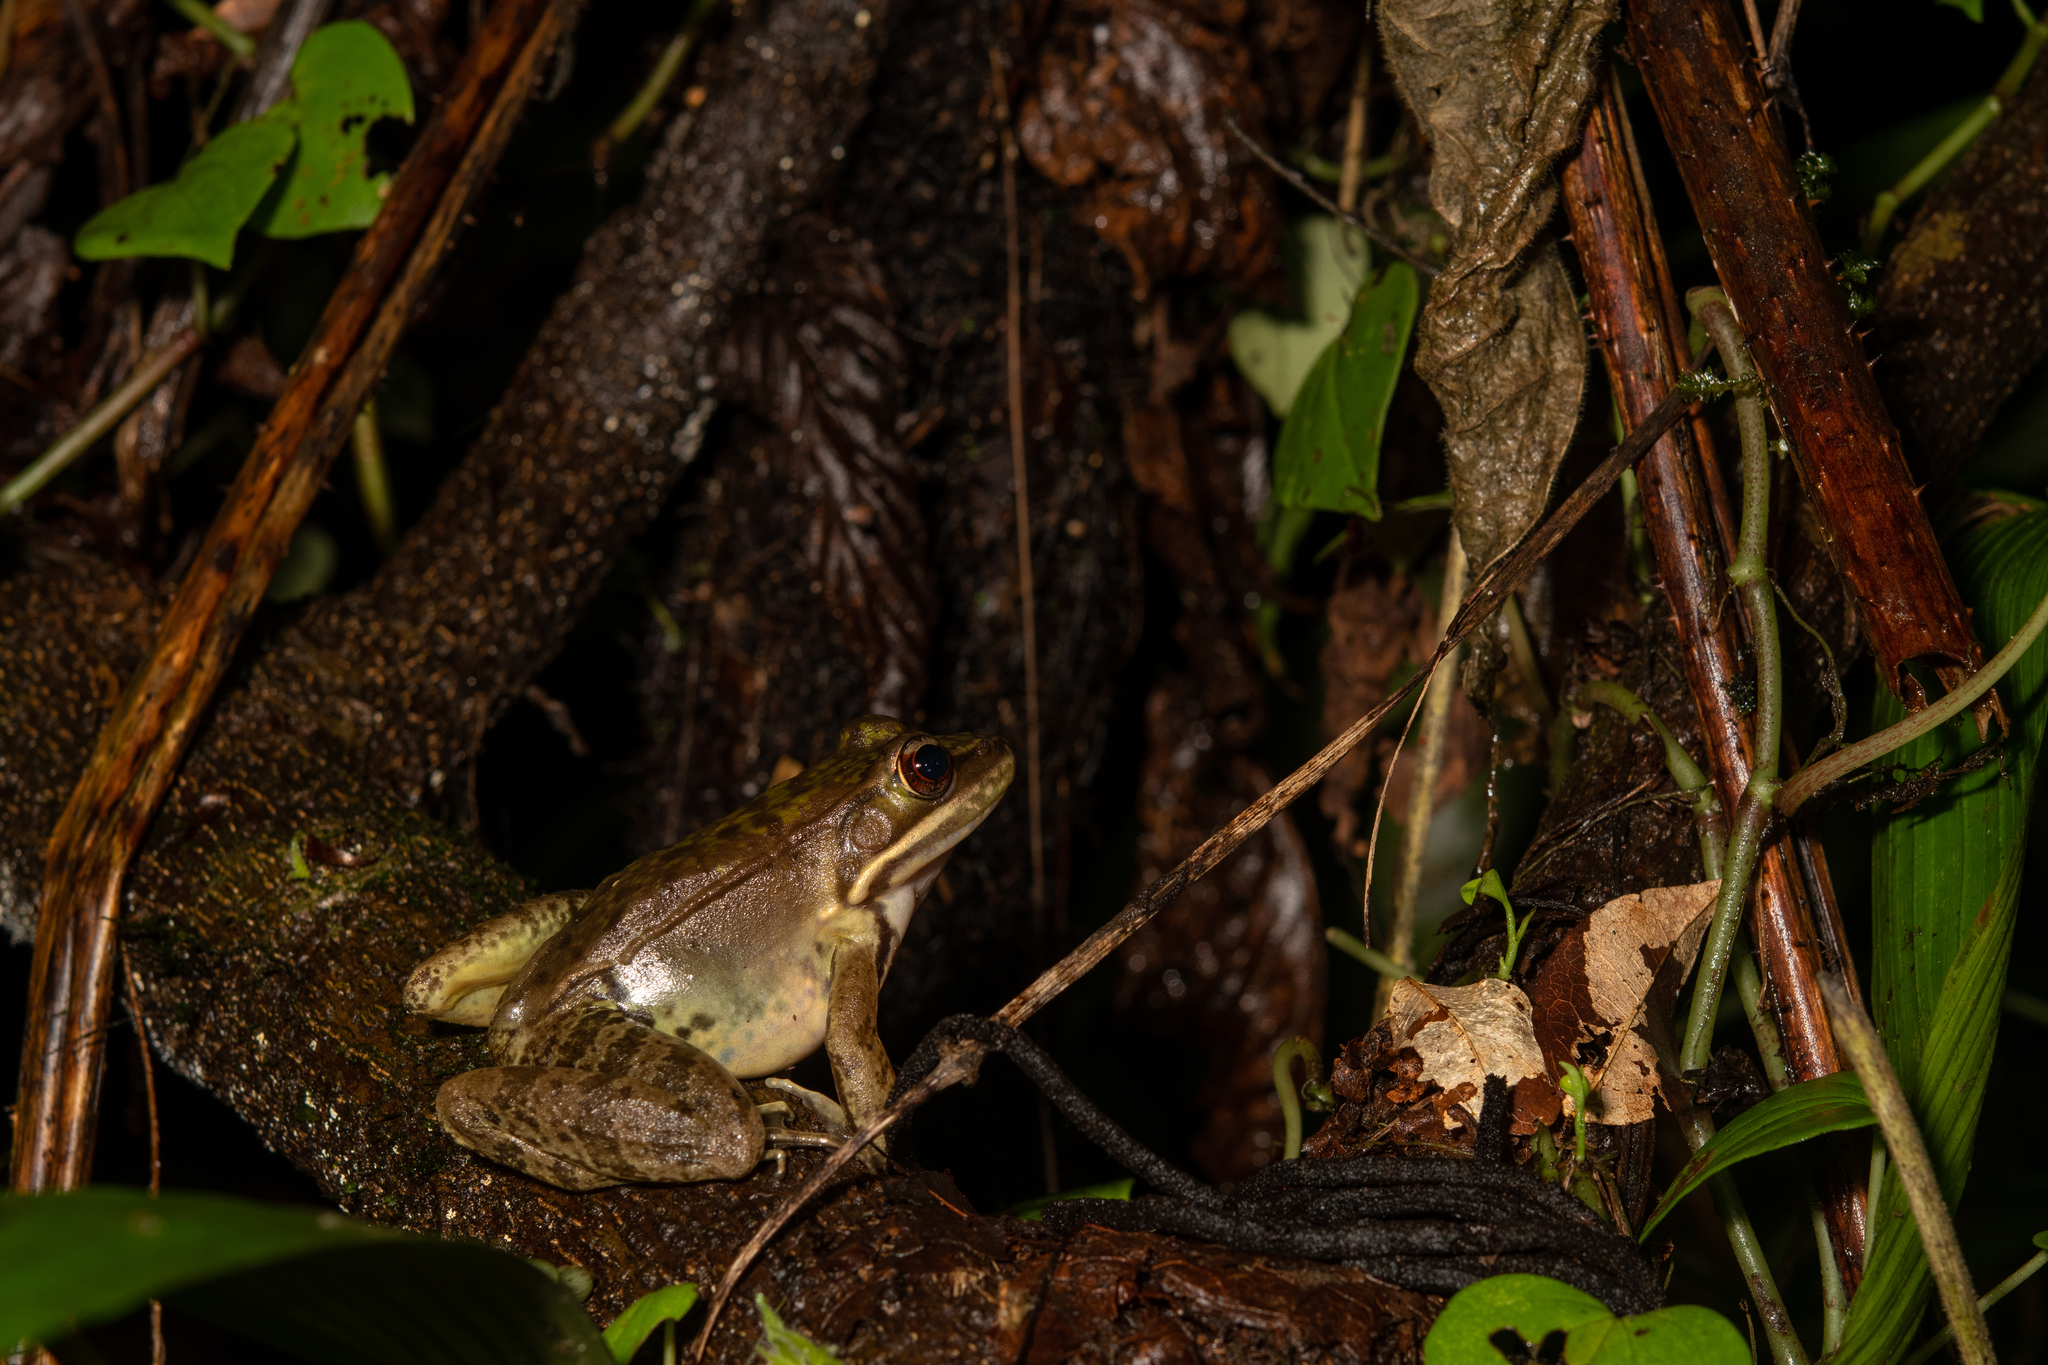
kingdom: Animalia
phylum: Chordata
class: Amphibia
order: Anura
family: Ranidae
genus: Lithobates
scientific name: Lithobates maculatus
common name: Highland frog
